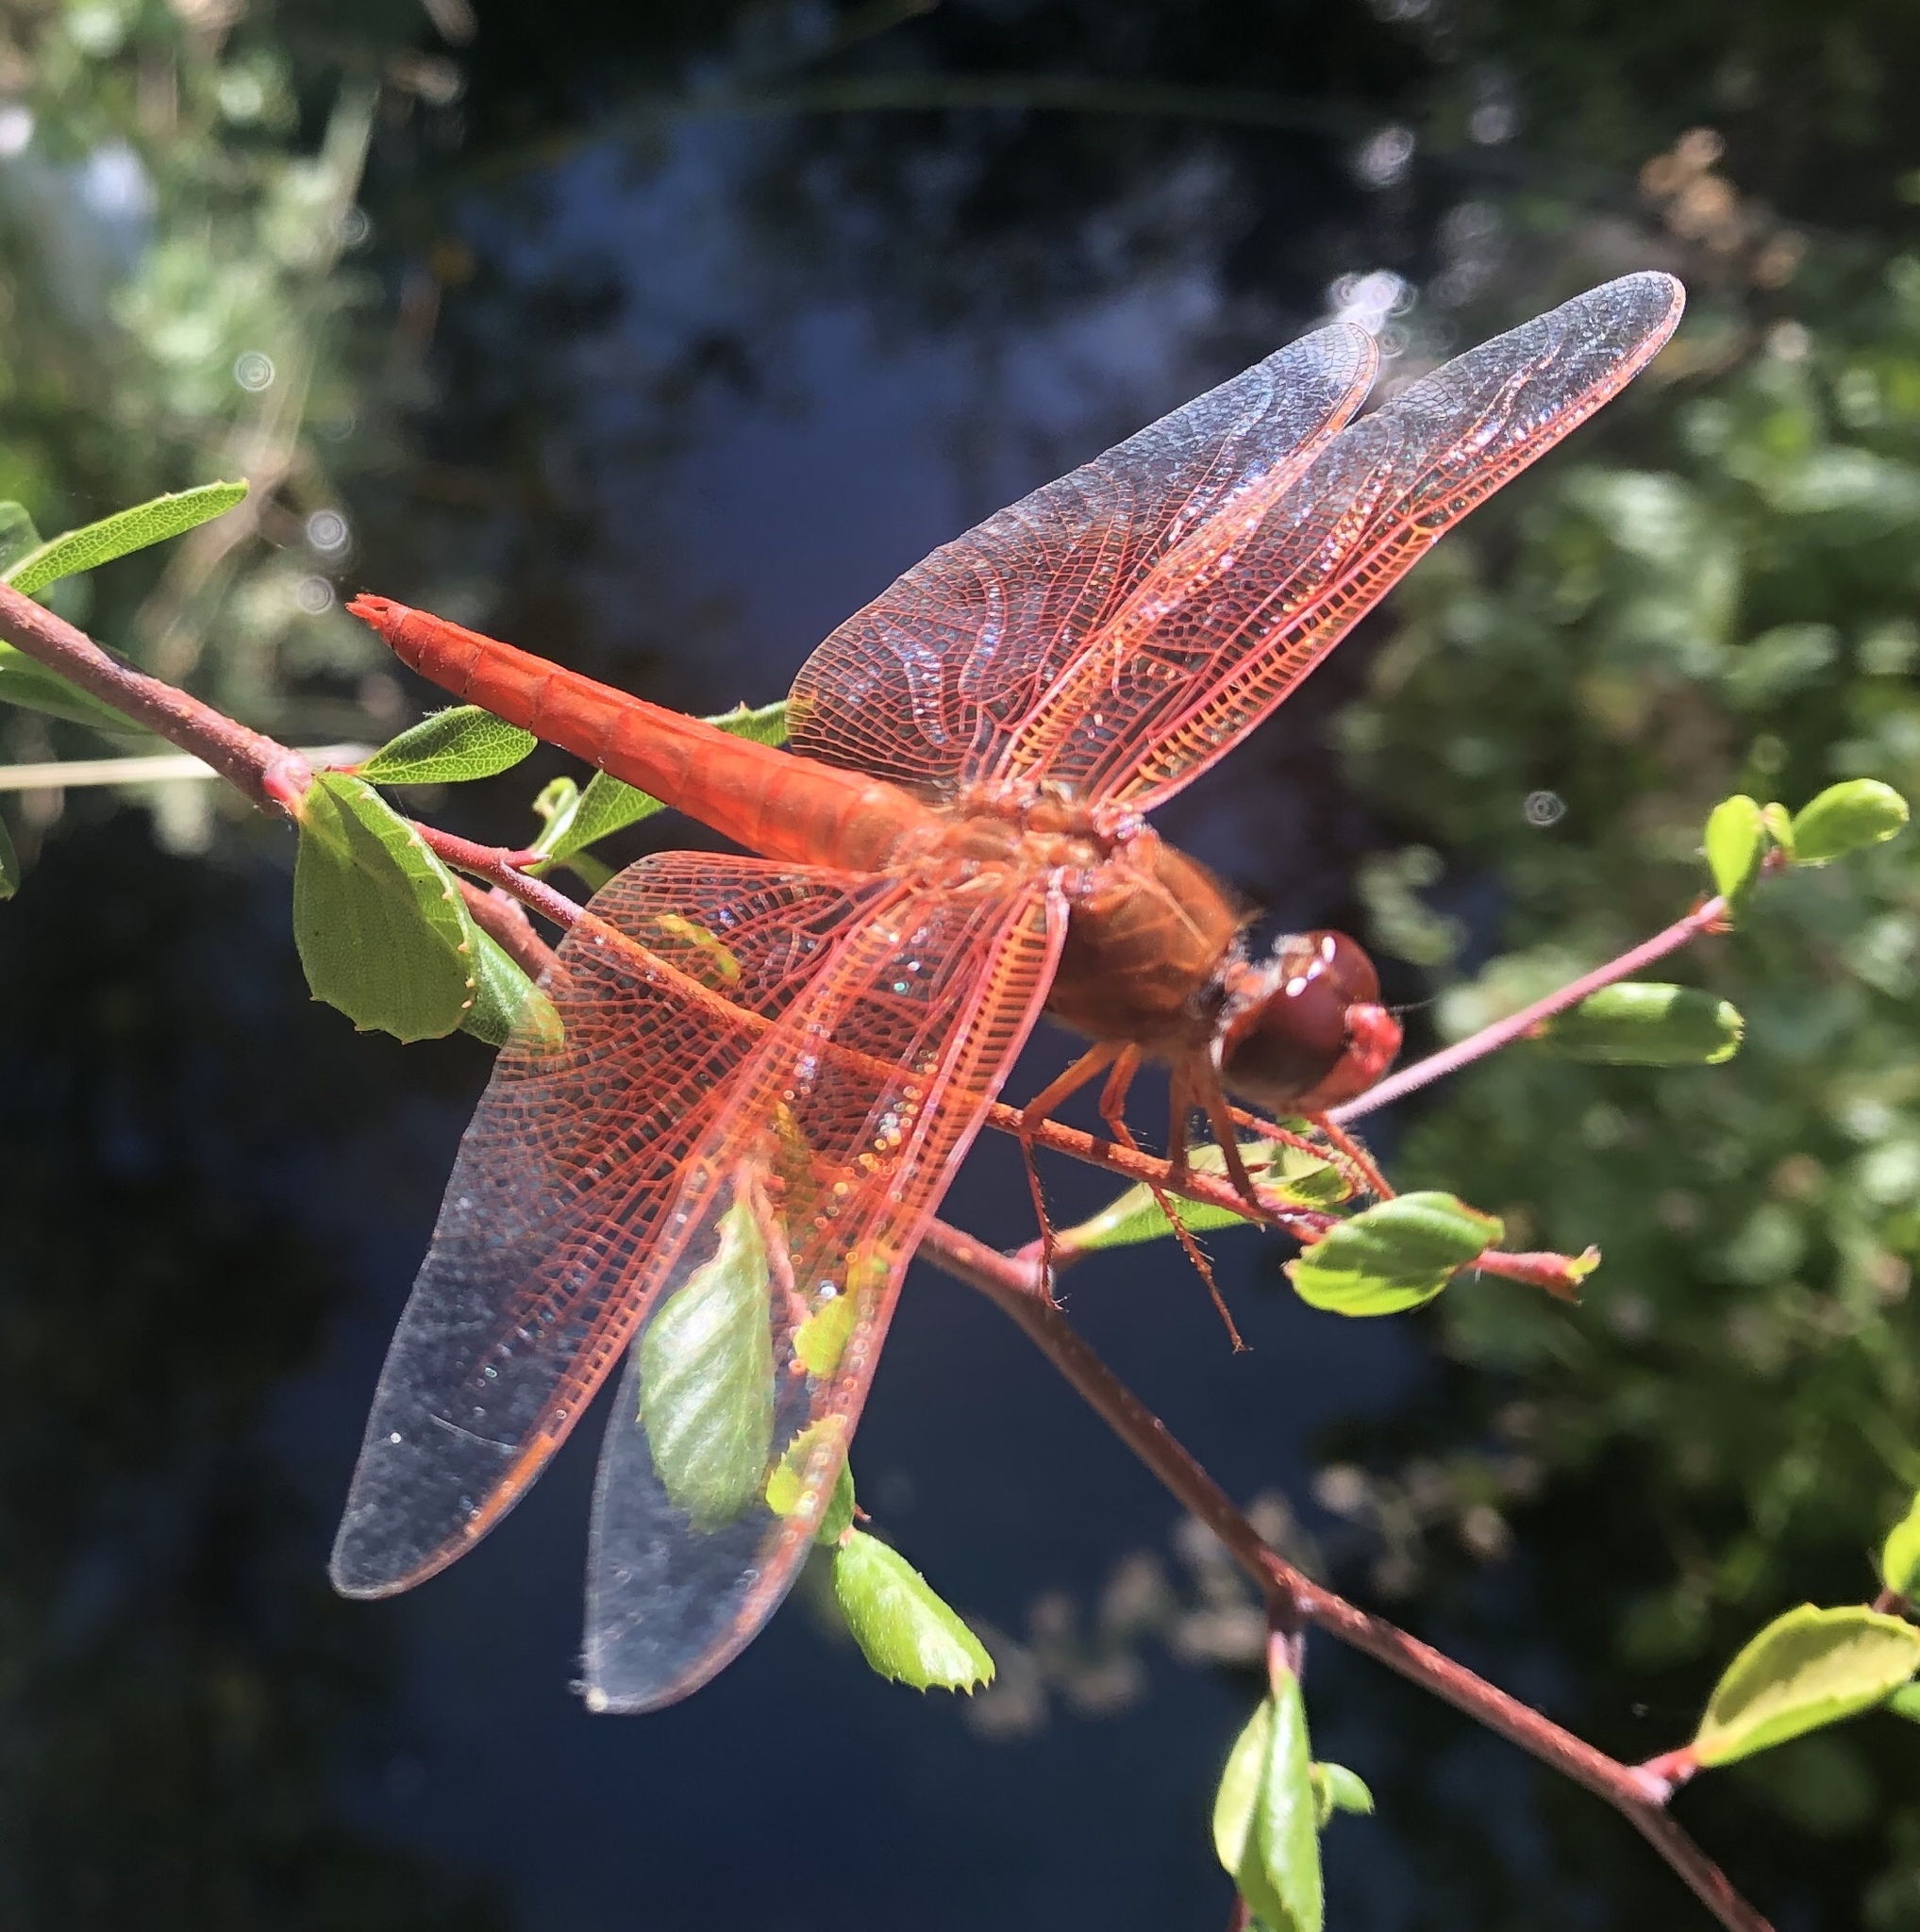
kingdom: Animalia
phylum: Arthropoda
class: Insecta
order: Odonata
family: Libellulidae
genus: Libellula
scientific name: Libellula saturata
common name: Flame skimmer
